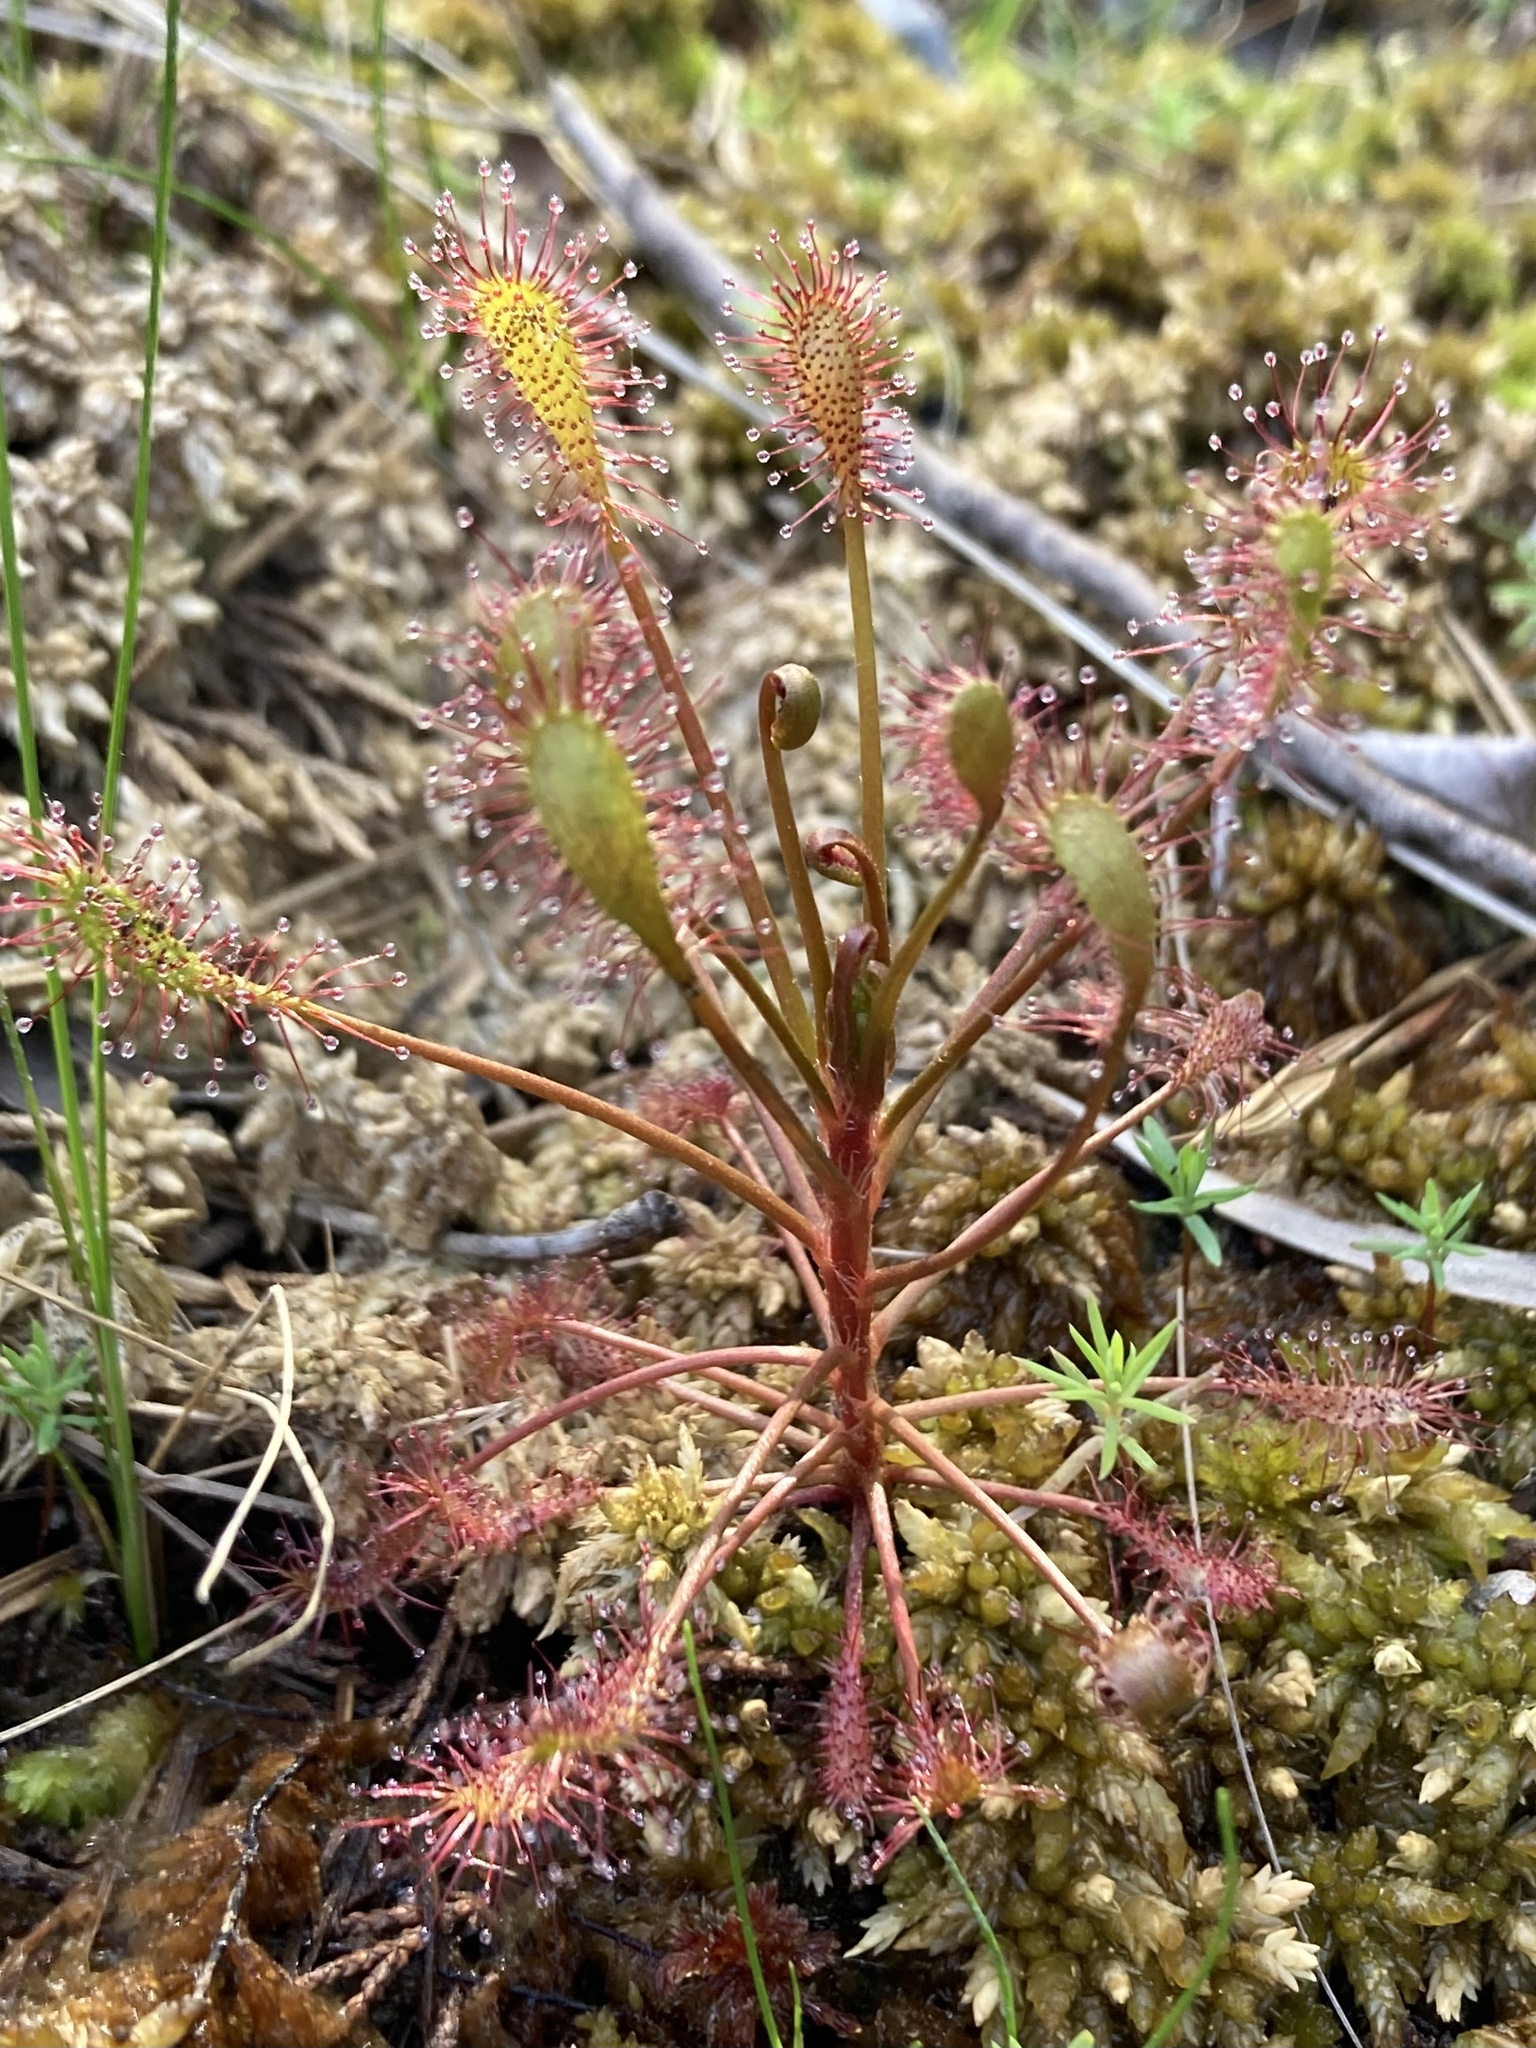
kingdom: Plantae
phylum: Tracheophyta
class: Magnoliopsida
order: Caryophyllales
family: Droseraceae
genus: Drosera
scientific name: Drosera intermedia
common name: Oblong-leaved sundew
